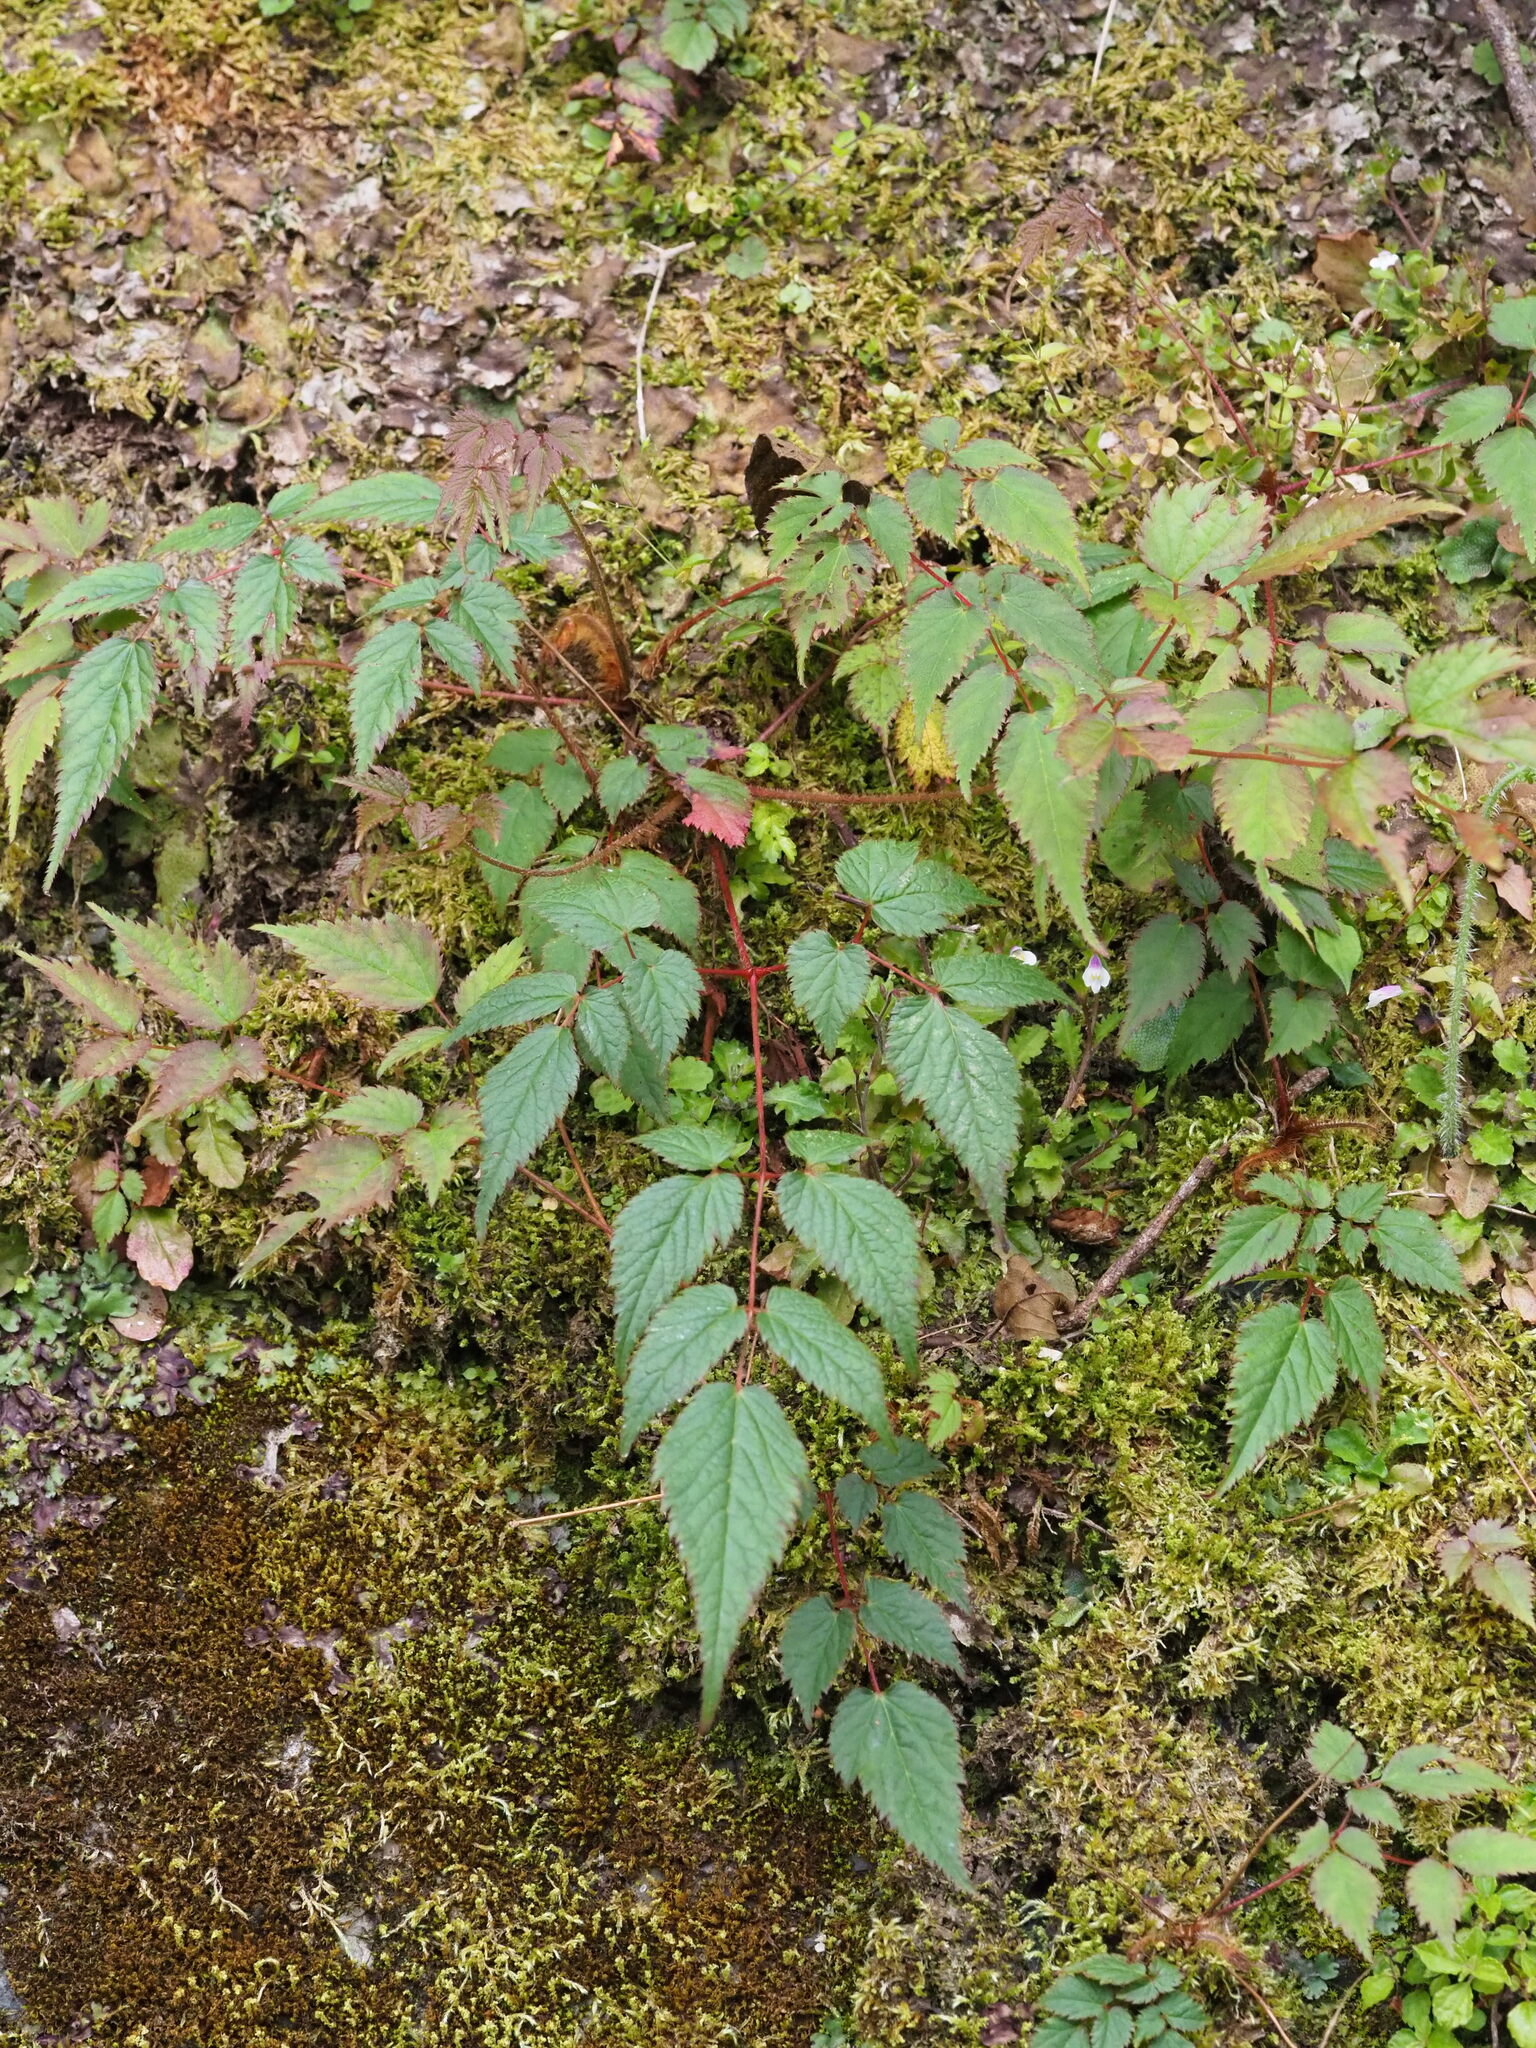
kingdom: Plantae
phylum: Tracheophyta
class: Magnoliopsida
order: Saxifragales
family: Saxifragaceae
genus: Astilbe
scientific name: Astilbe longicarpa
